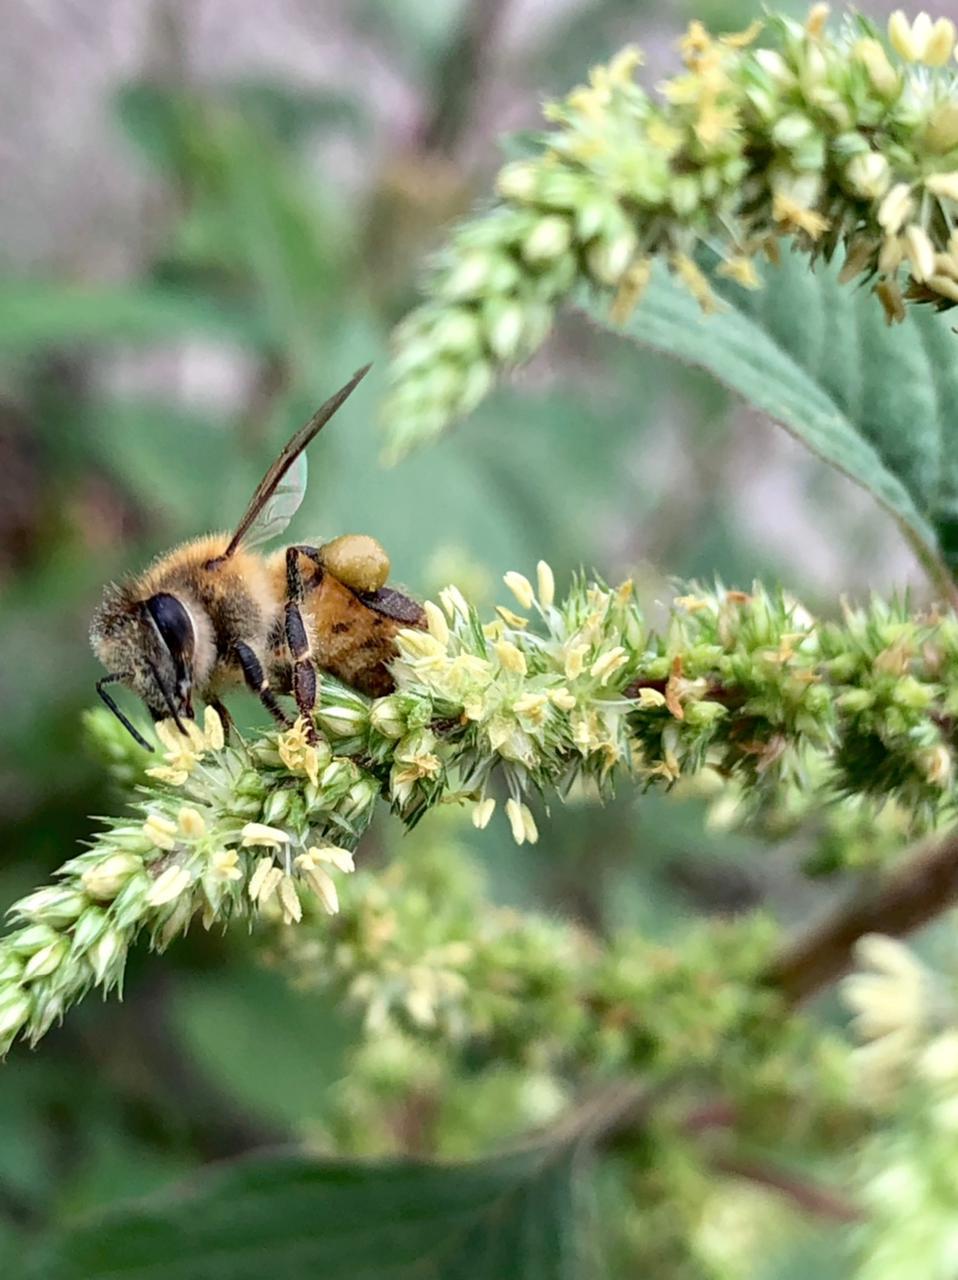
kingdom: Animalia
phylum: Arthropoda
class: Insecta
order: Hymenoptera
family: Apidae
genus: Apis
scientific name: Apis mellifera
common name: Honey bee
